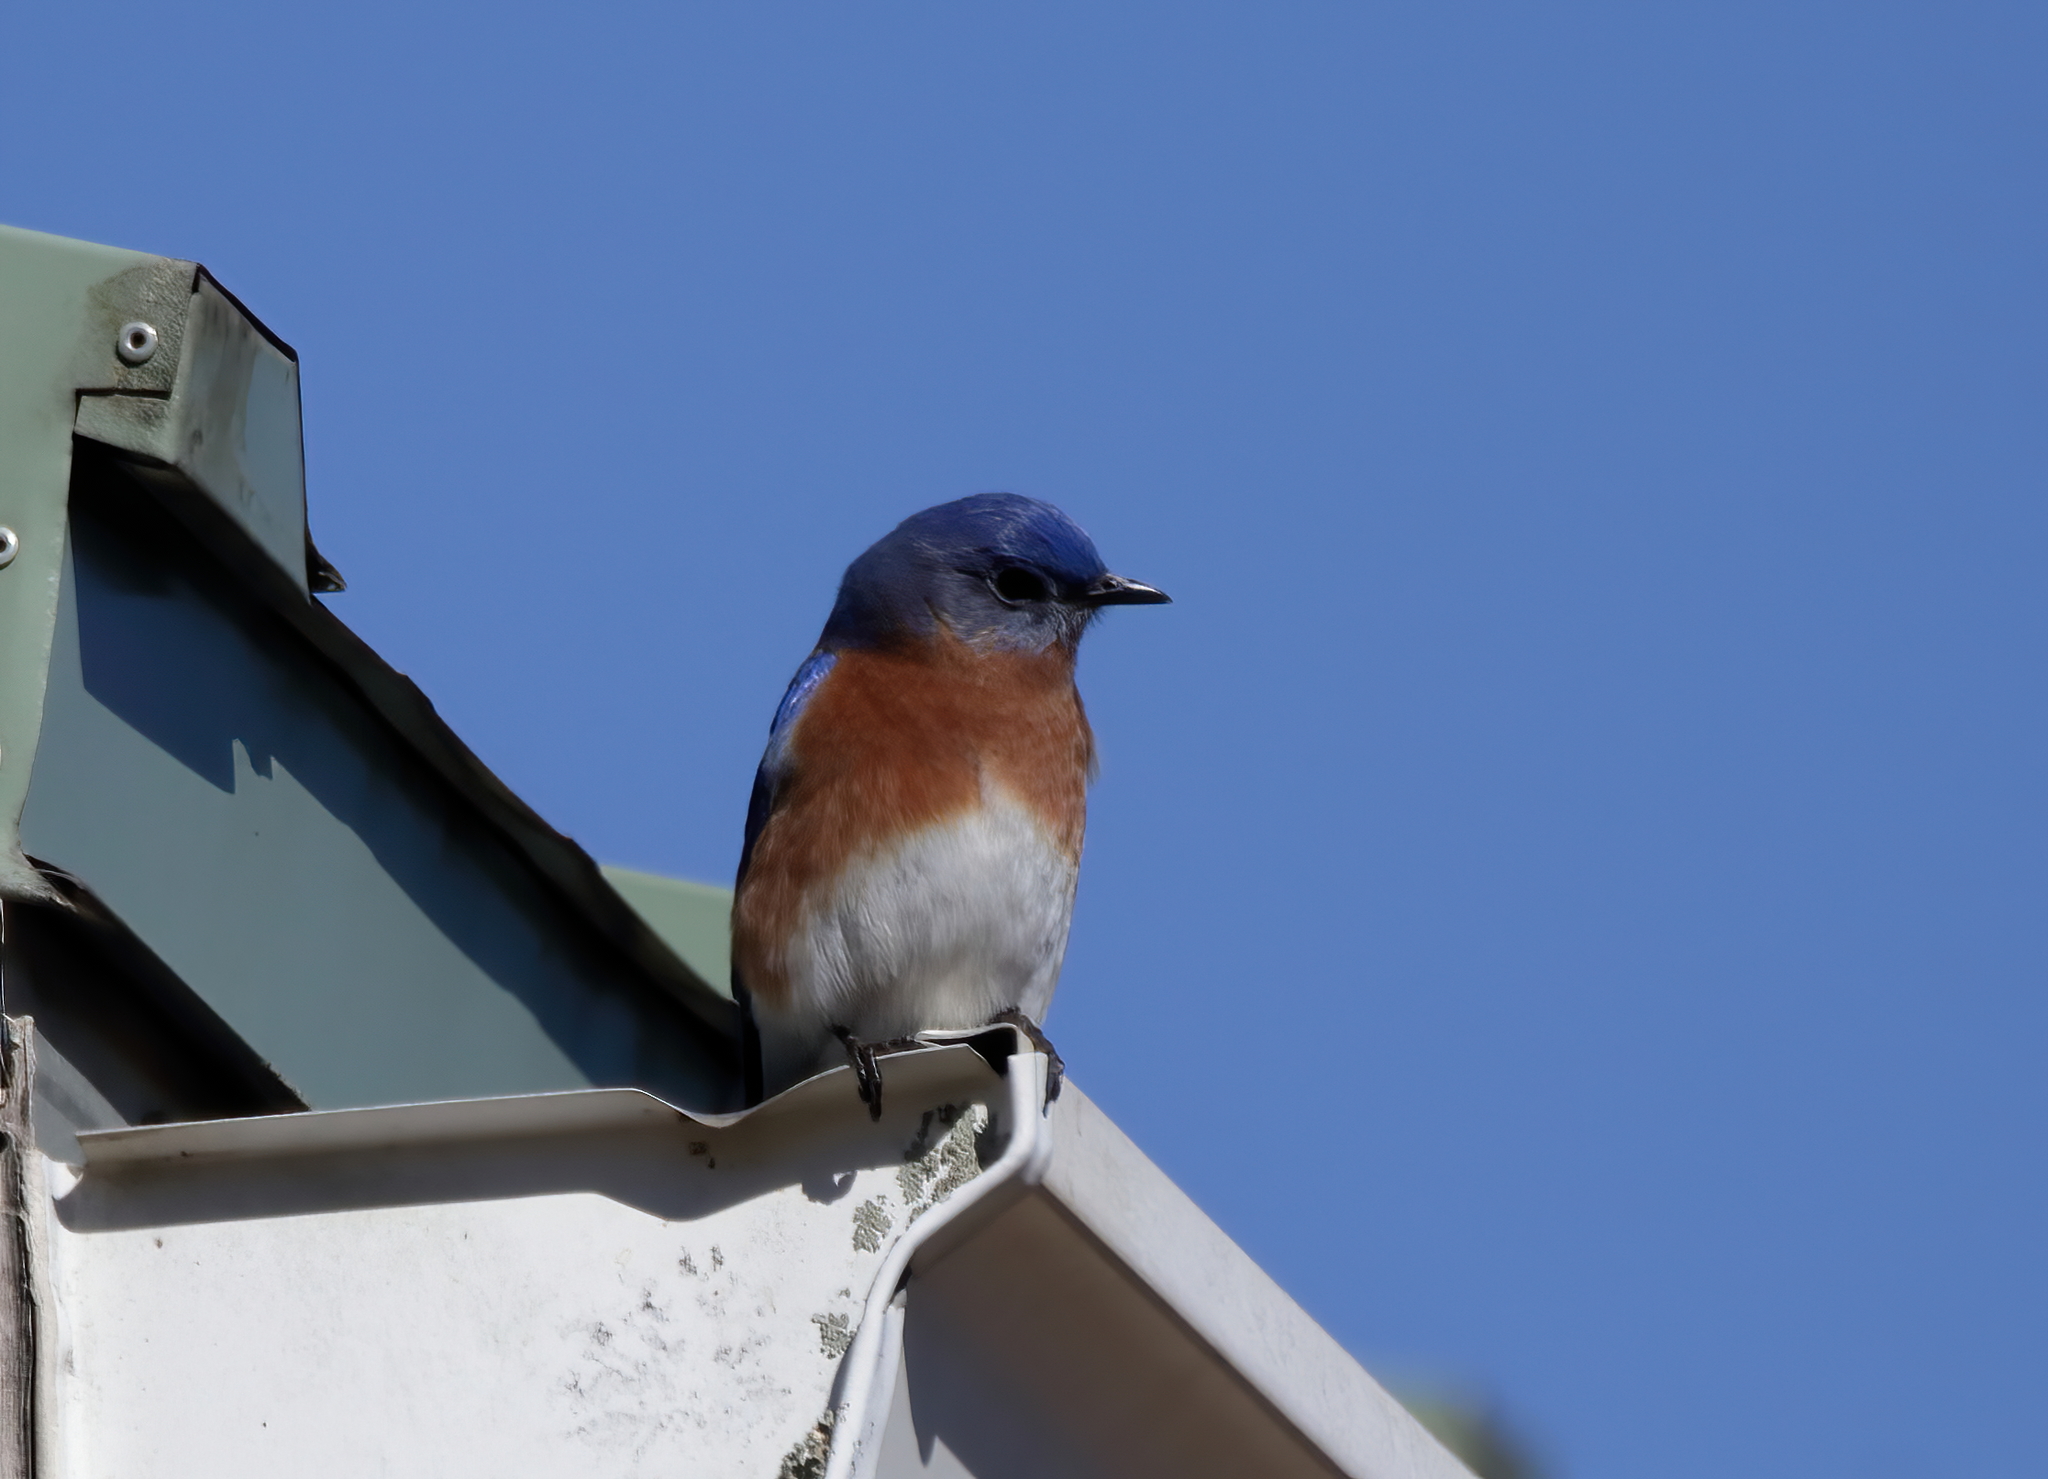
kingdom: Animalia
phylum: Chordata
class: Aves
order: Passeriformes
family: Turdidae
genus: Sialia
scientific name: Sialia sialis
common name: Eastern bluebird
